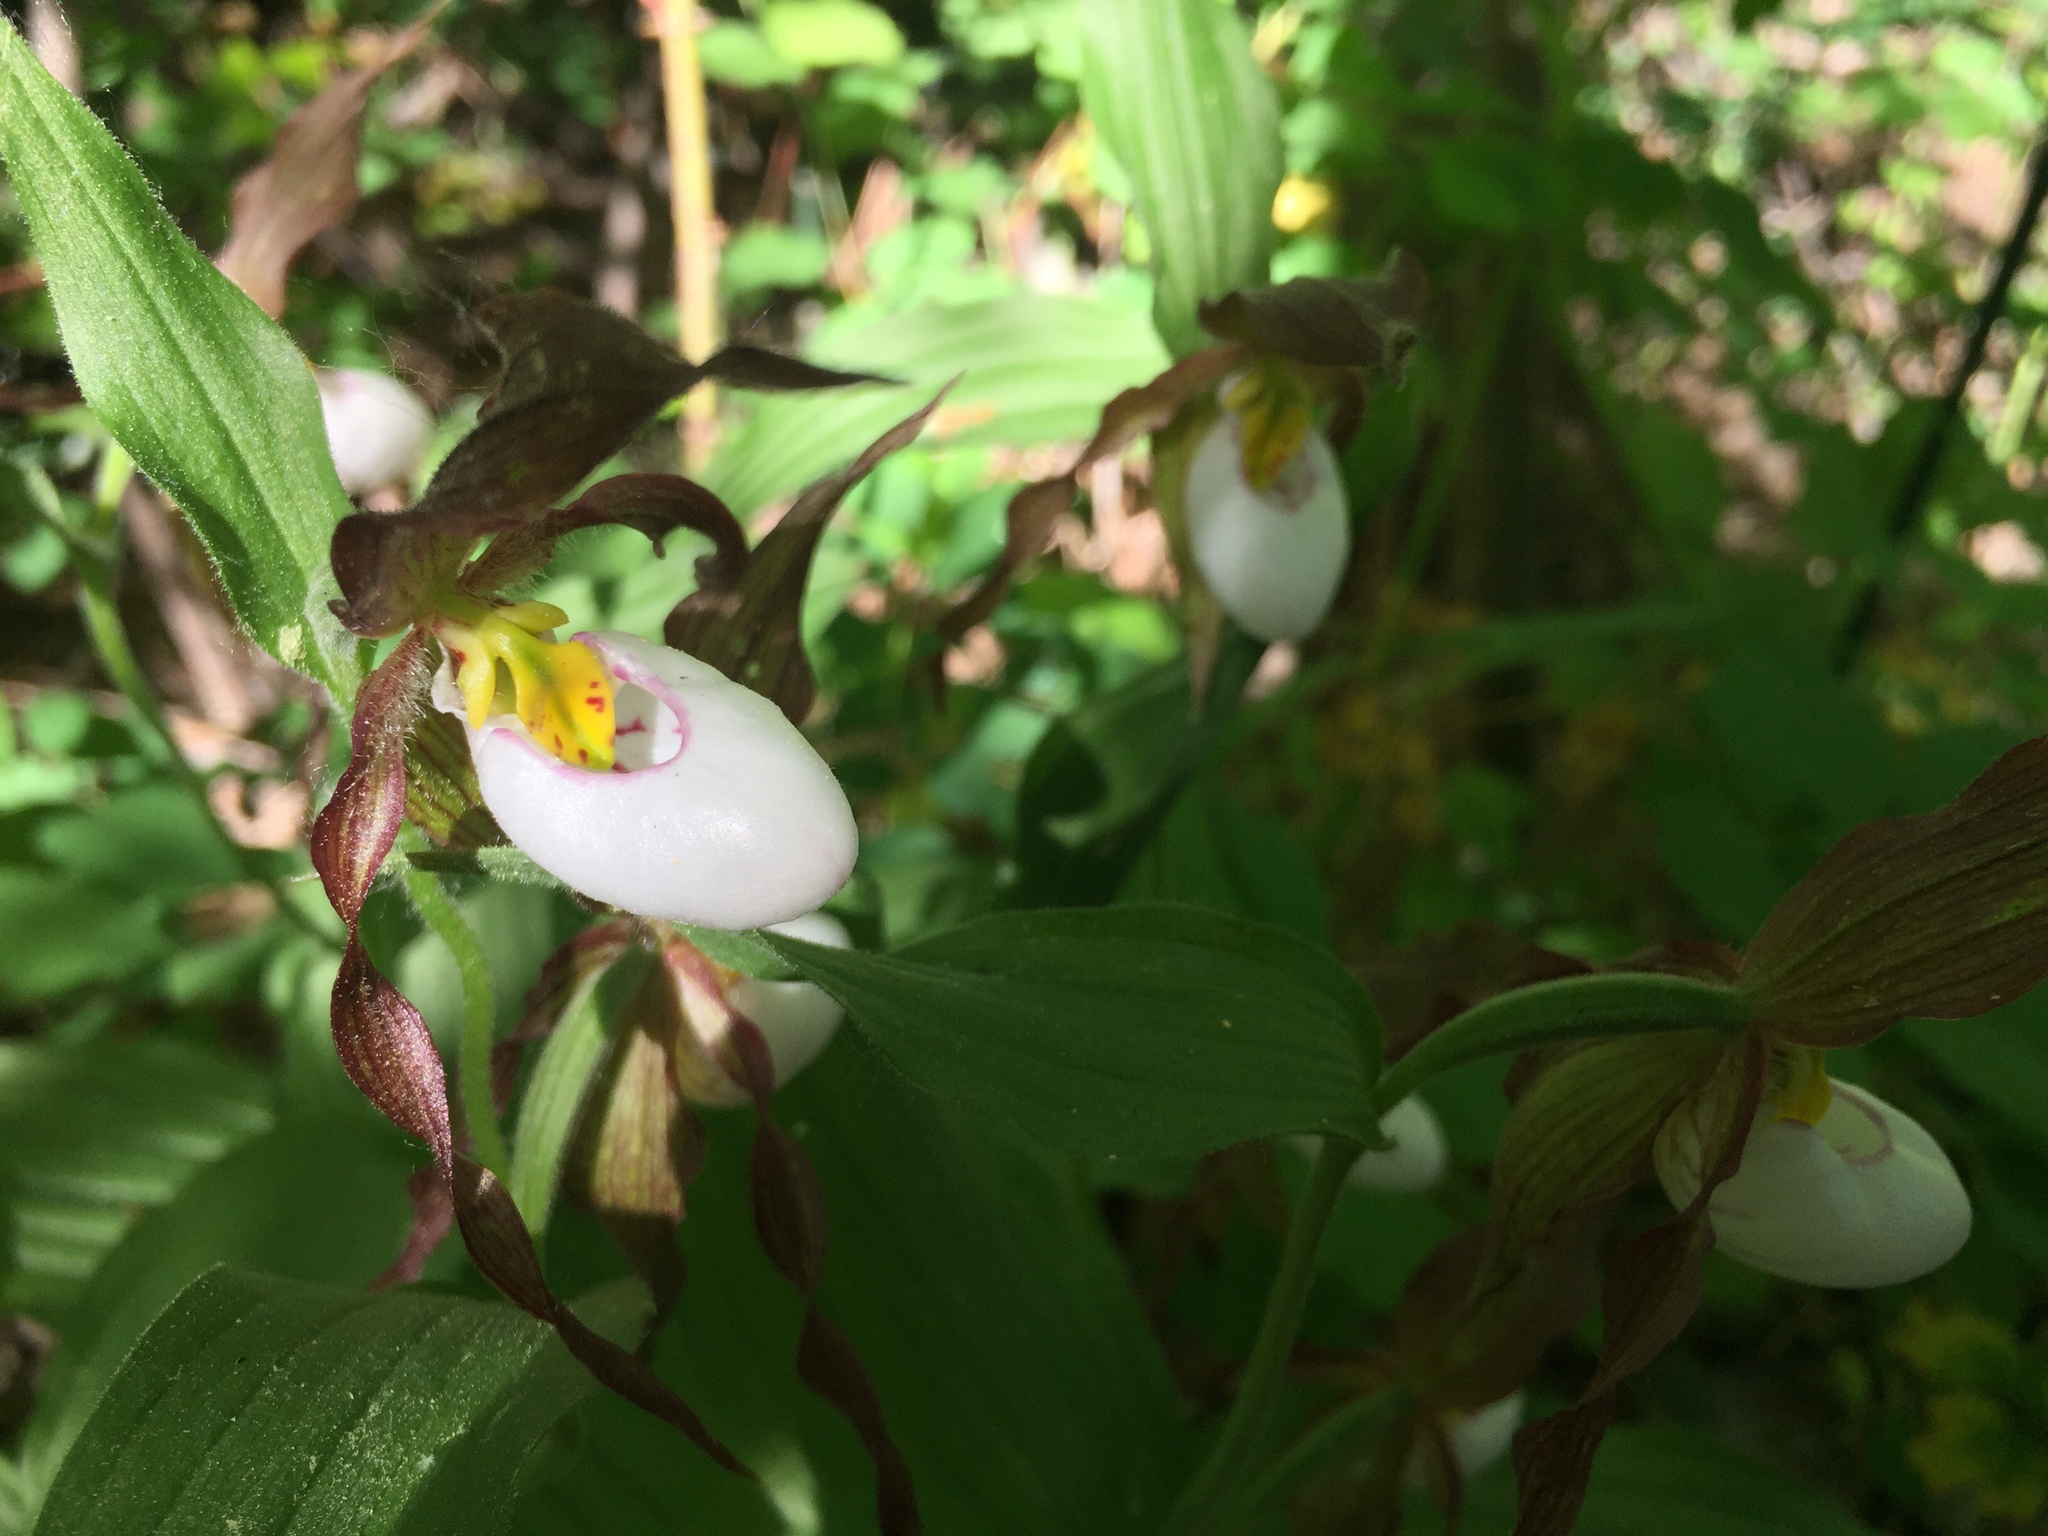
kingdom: Plantae
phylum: Tracheophyta
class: Liliopsida
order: Asparagales
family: Orchidaceae
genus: Cypripedium
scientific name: Cypripedium montanum
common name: Mountain lady's-slipper
